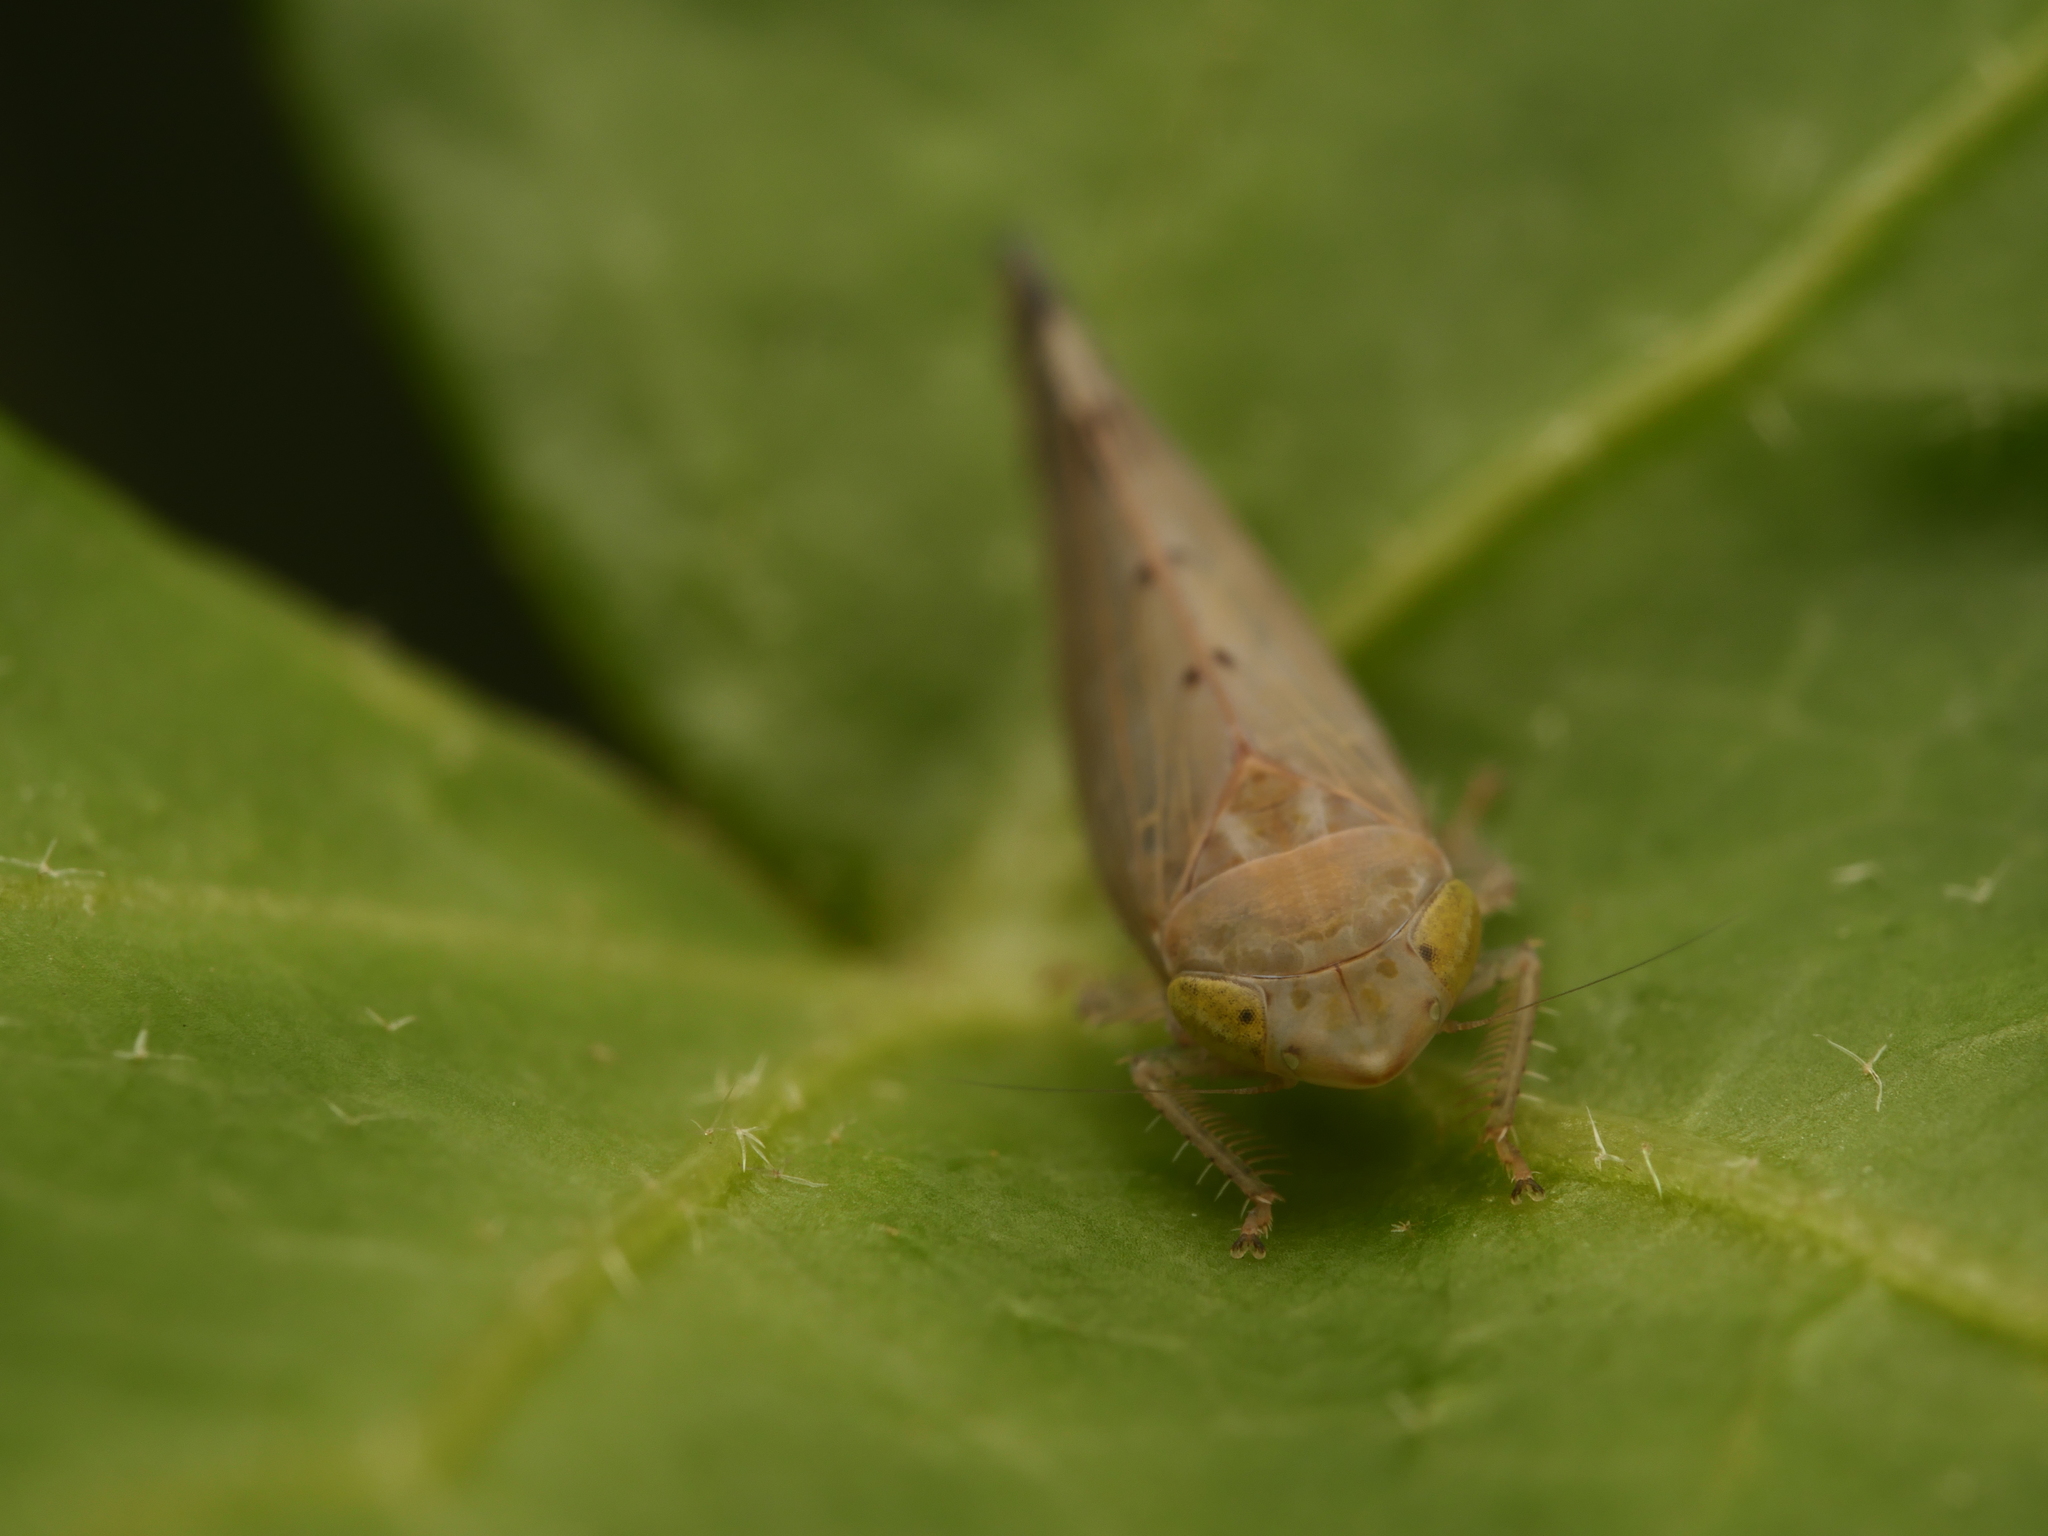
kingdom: Animalia
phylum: Arthropoda
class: Insecta
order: Hemiptera
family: Cicadellidae
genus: Synophropsis
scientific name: Synophropsis lauri
